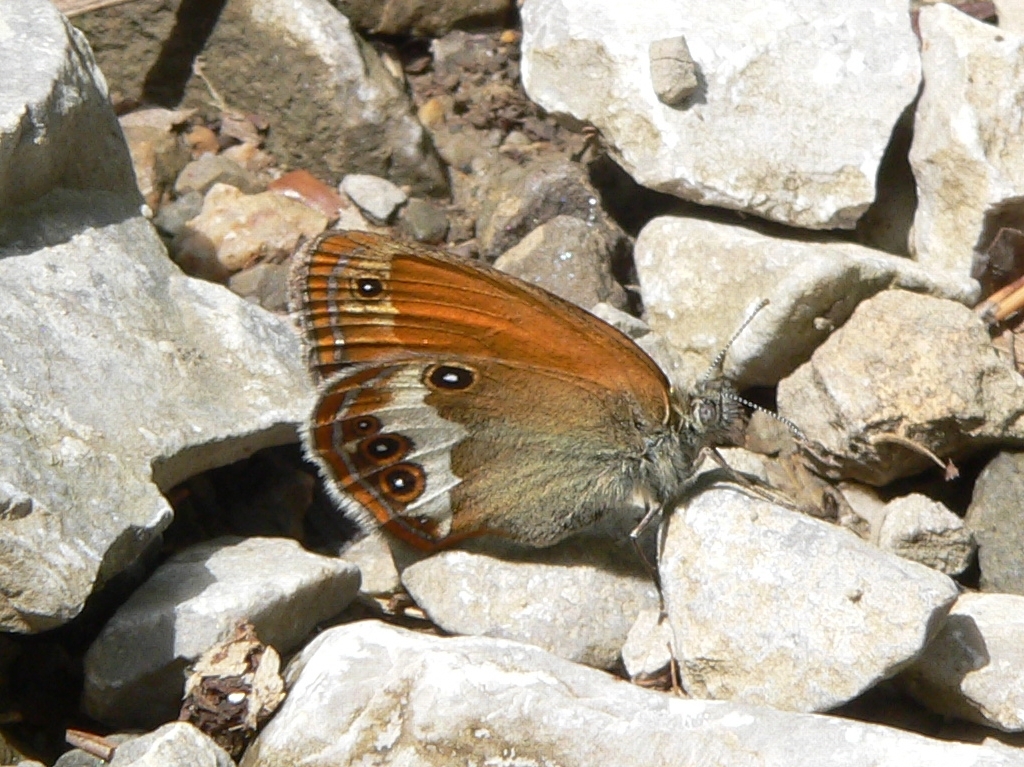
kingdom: Animalia
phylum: Arthropoda
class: Insecta
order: Lepidoptera
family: Nymphalidae
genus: Coenonympha
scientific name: Coenonympha arcania
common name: Pearly heath
